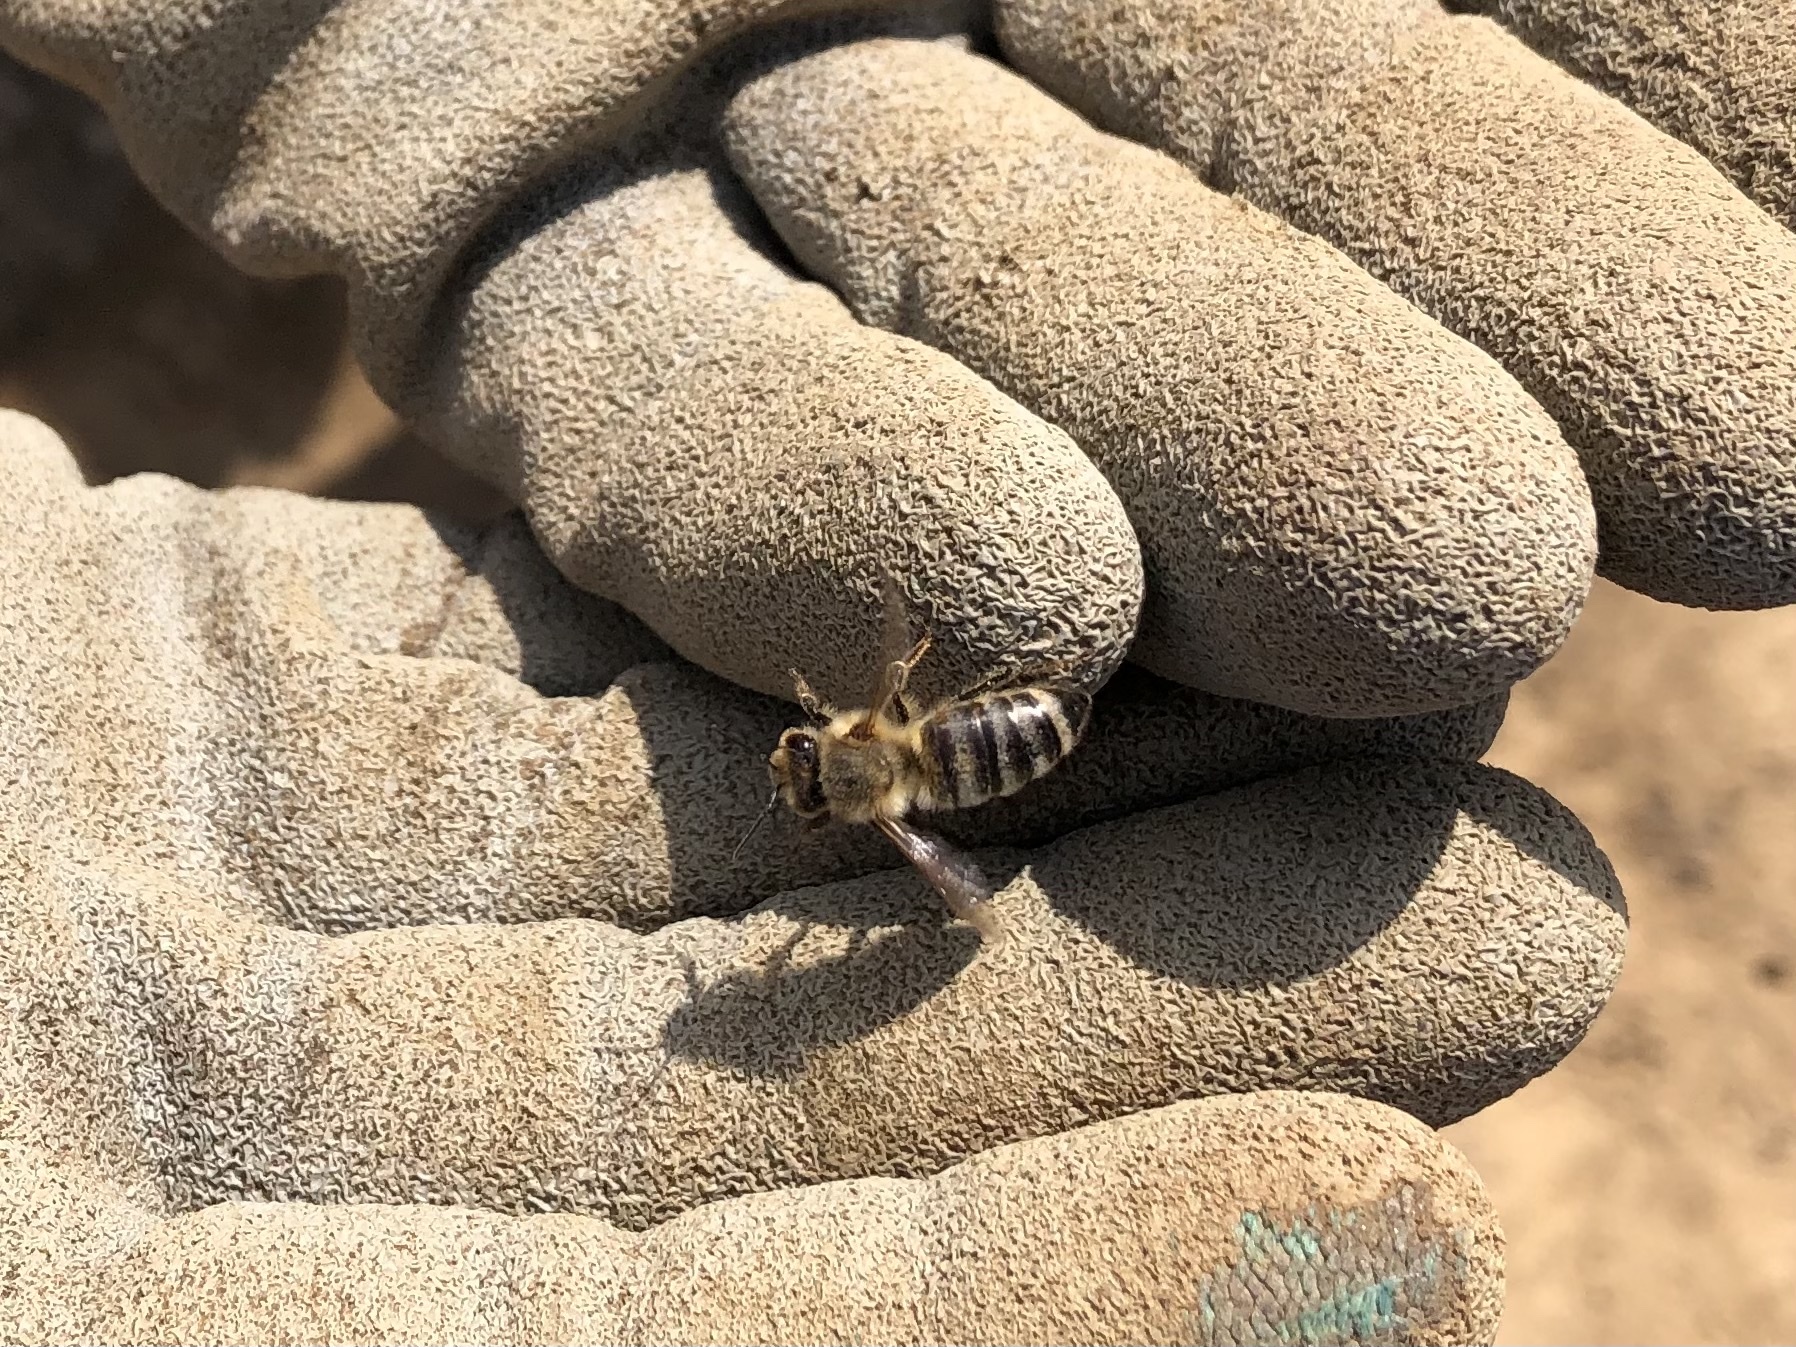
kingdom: Animalia
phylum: Arthropoda
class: Insecta
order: Hymenoptera
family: Apidae
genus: Apis
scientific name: Apis mellifera
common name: Honey bee
